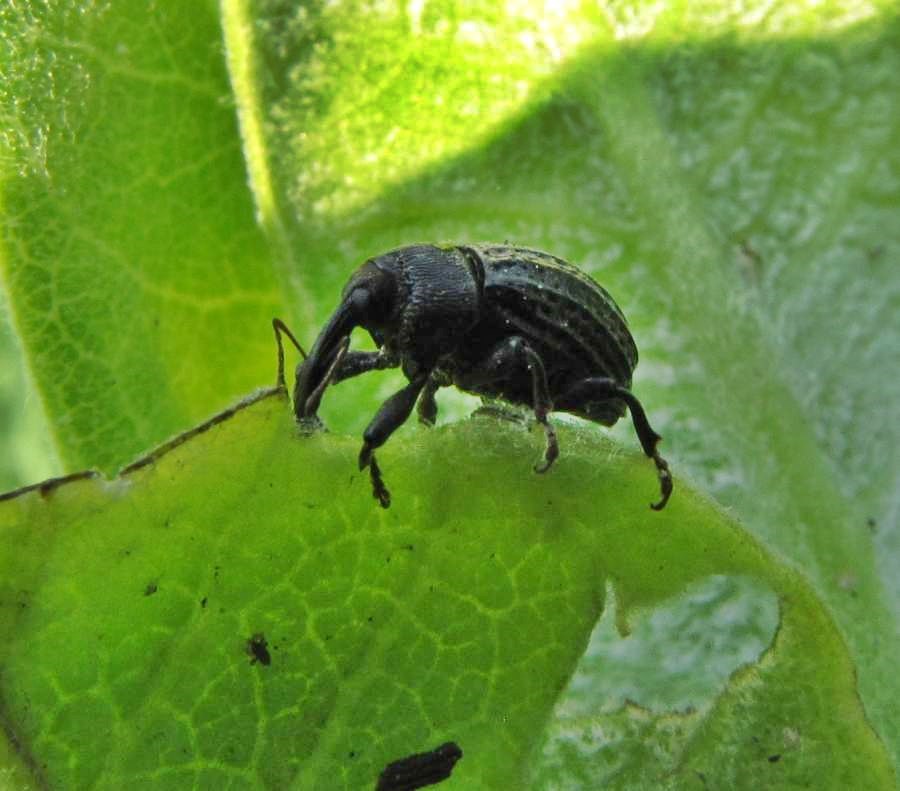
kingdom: Animalia
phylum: Arthropoda
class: Insecta
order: Coleoptera
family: Curculionidae
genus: Rhyssomatus
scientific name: Rhyssomatus lineaticollis
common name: Milkweed stem weevil
